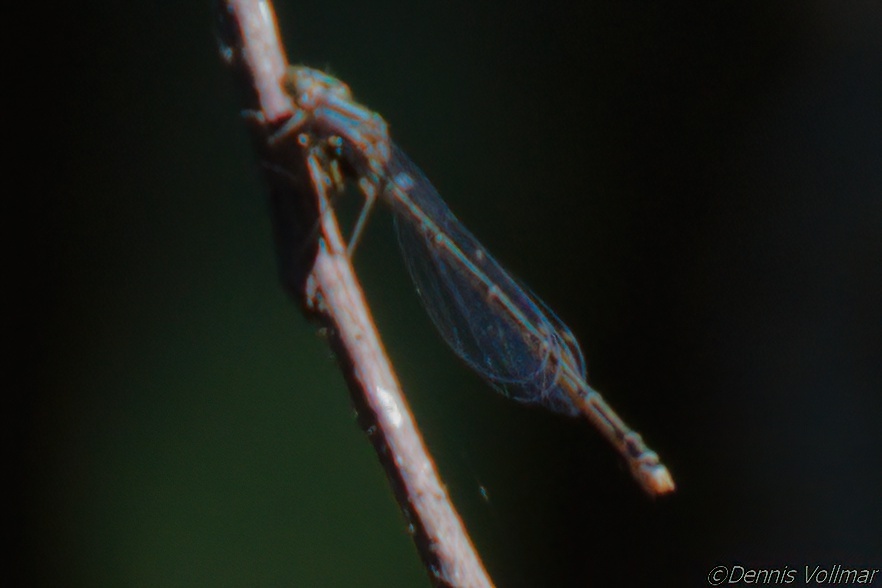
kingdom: Animalia
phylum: Arthropoda
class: Insecta
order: Odonata
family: Coenagrionidae
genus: Enallagma
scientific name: Enallagma pollutum
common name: Florida bluet
